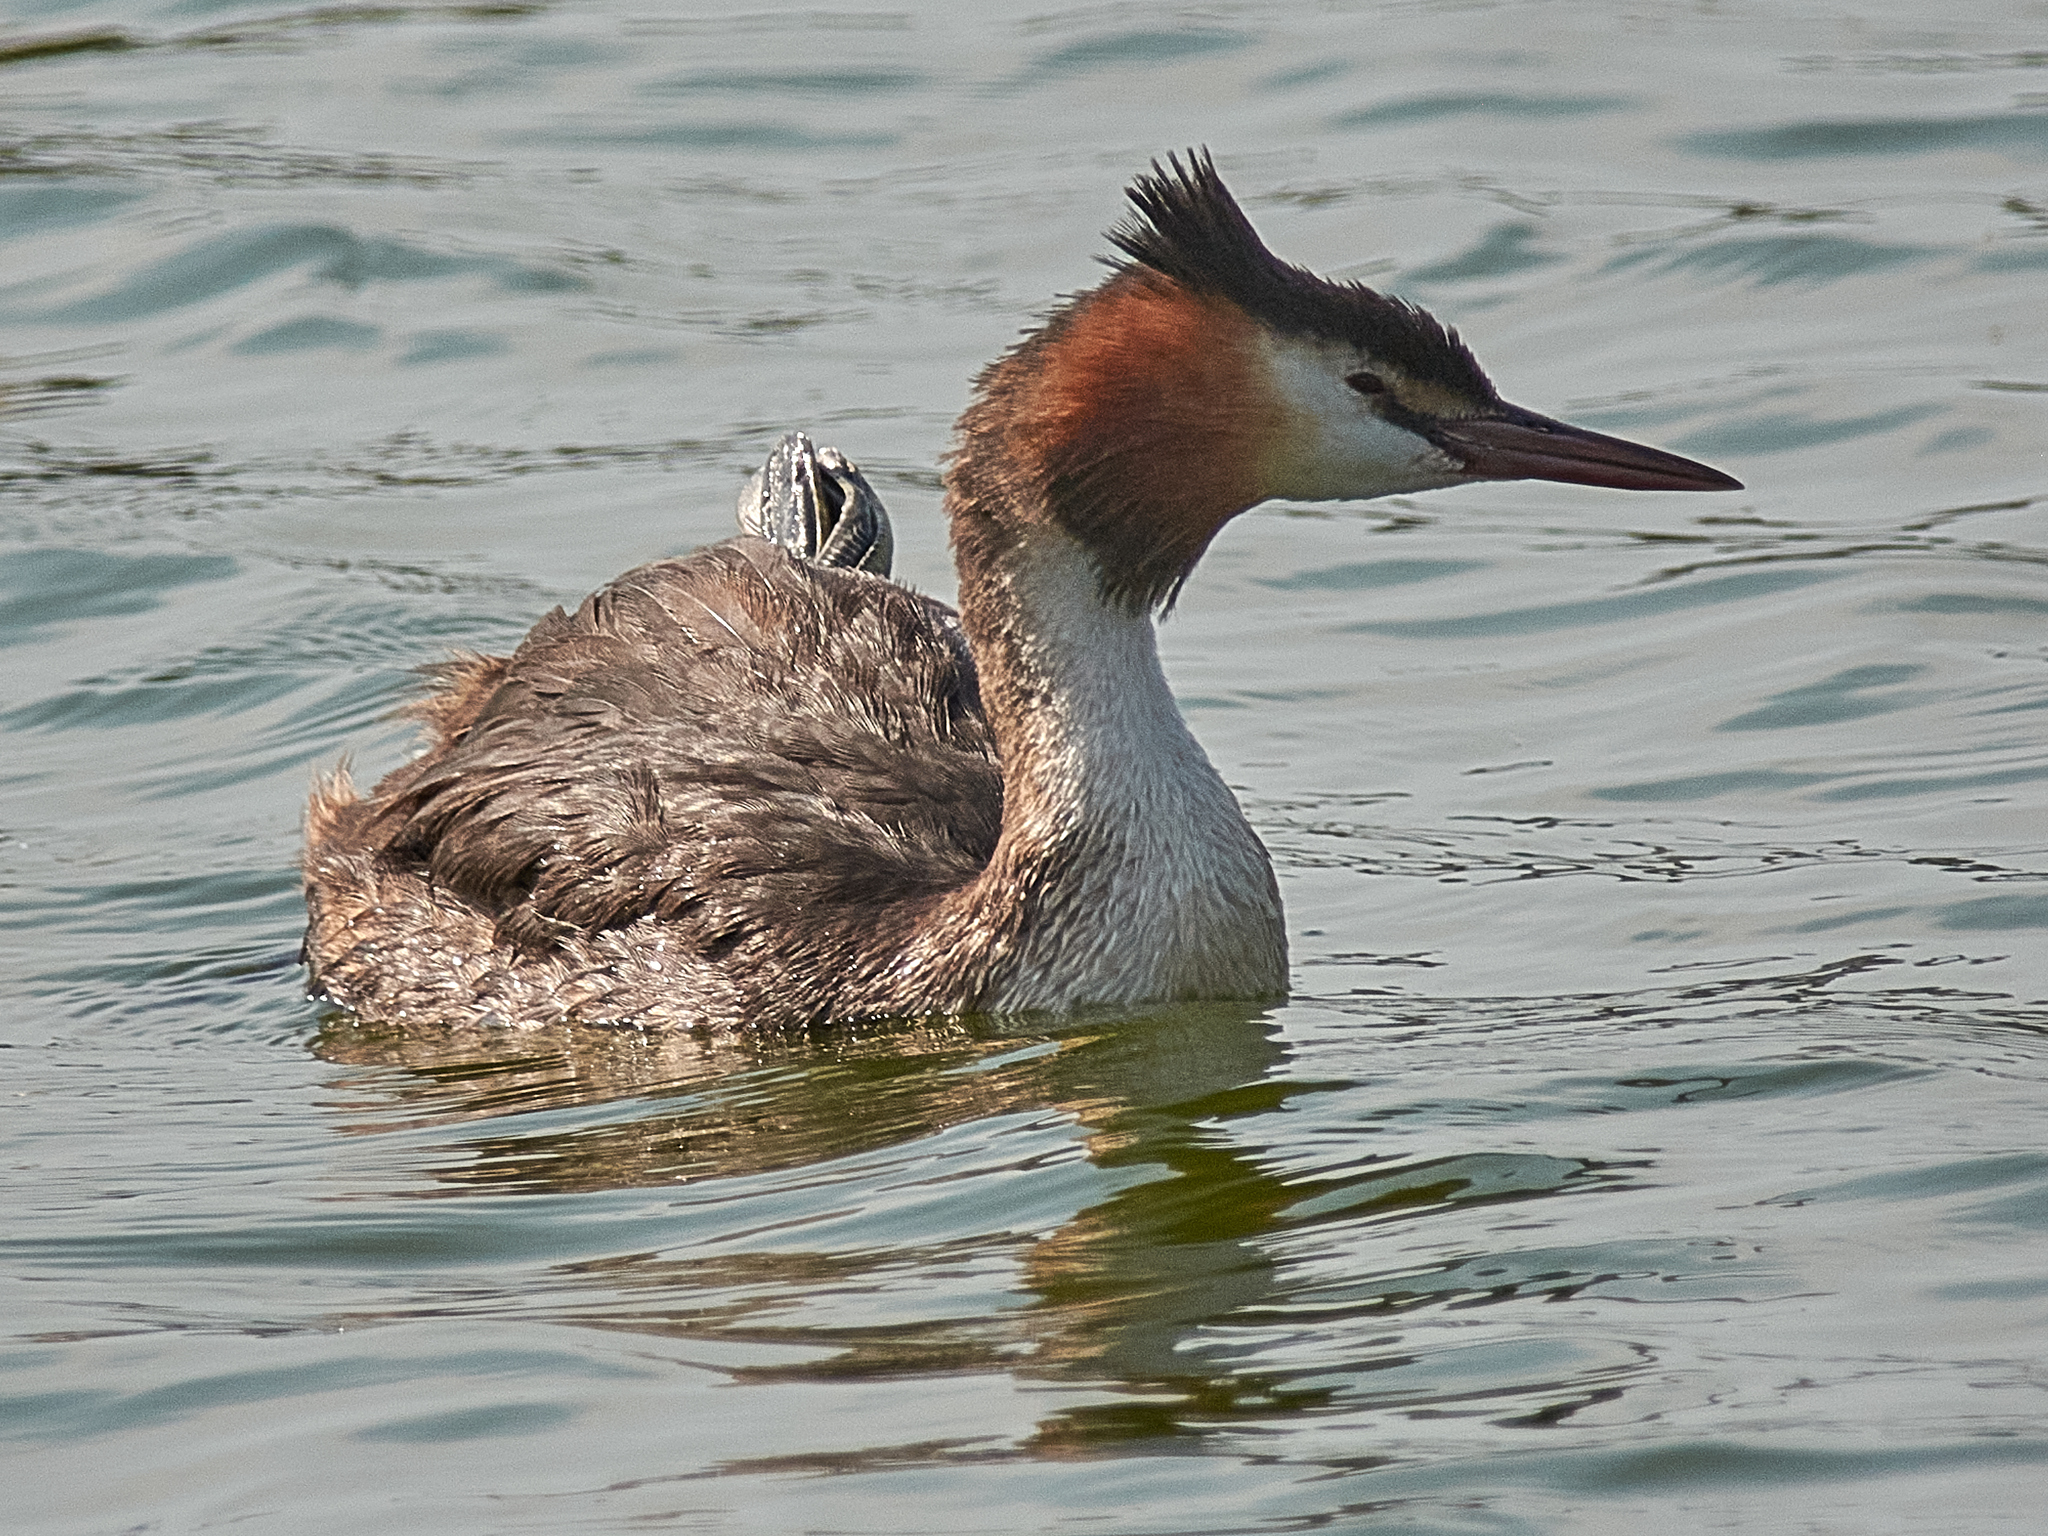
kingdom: Animalia
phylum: Chordata
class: Aves
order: Podicipediformes
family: Podicipedidae
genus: Podiceps
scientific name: Podiceps cristatus
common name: Great crested grebe
